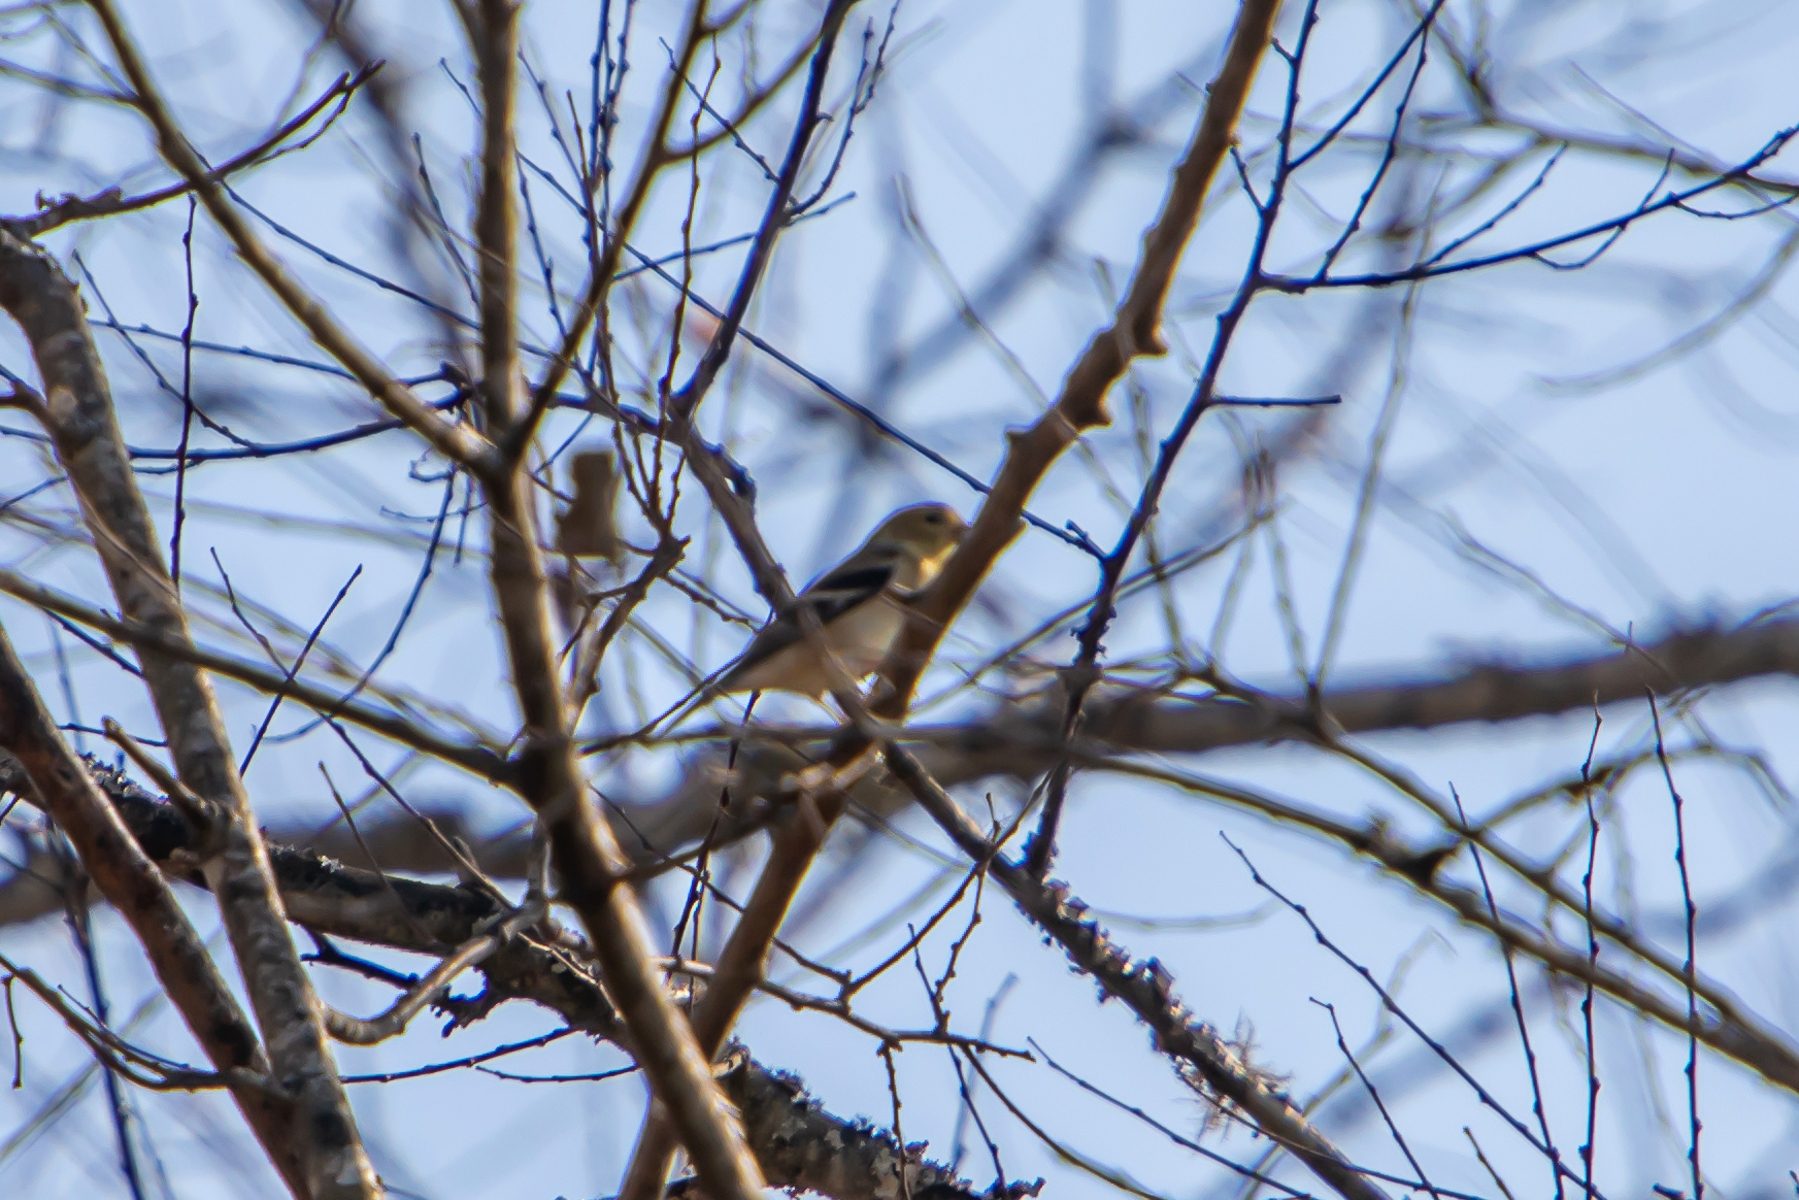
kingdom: Animalia
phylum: Chordata
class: Aves
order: Passeriformes
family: Fringillidae
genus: Spinus
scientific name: Spinus tristis
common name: American goldfinch
